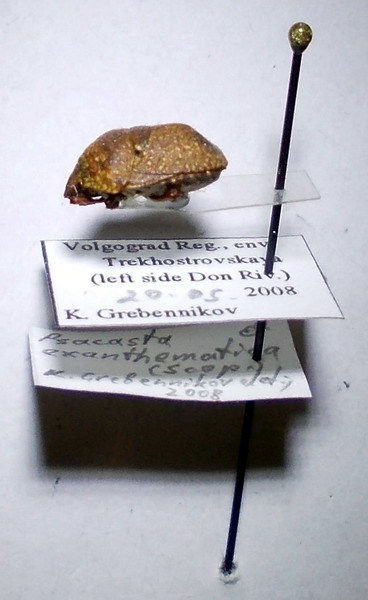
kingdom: Animalia
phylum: Arthropoda
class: Insecta
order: Hemiptera
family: Scutelleridae
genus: Psacasta
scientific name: Psacasta exanthematica
